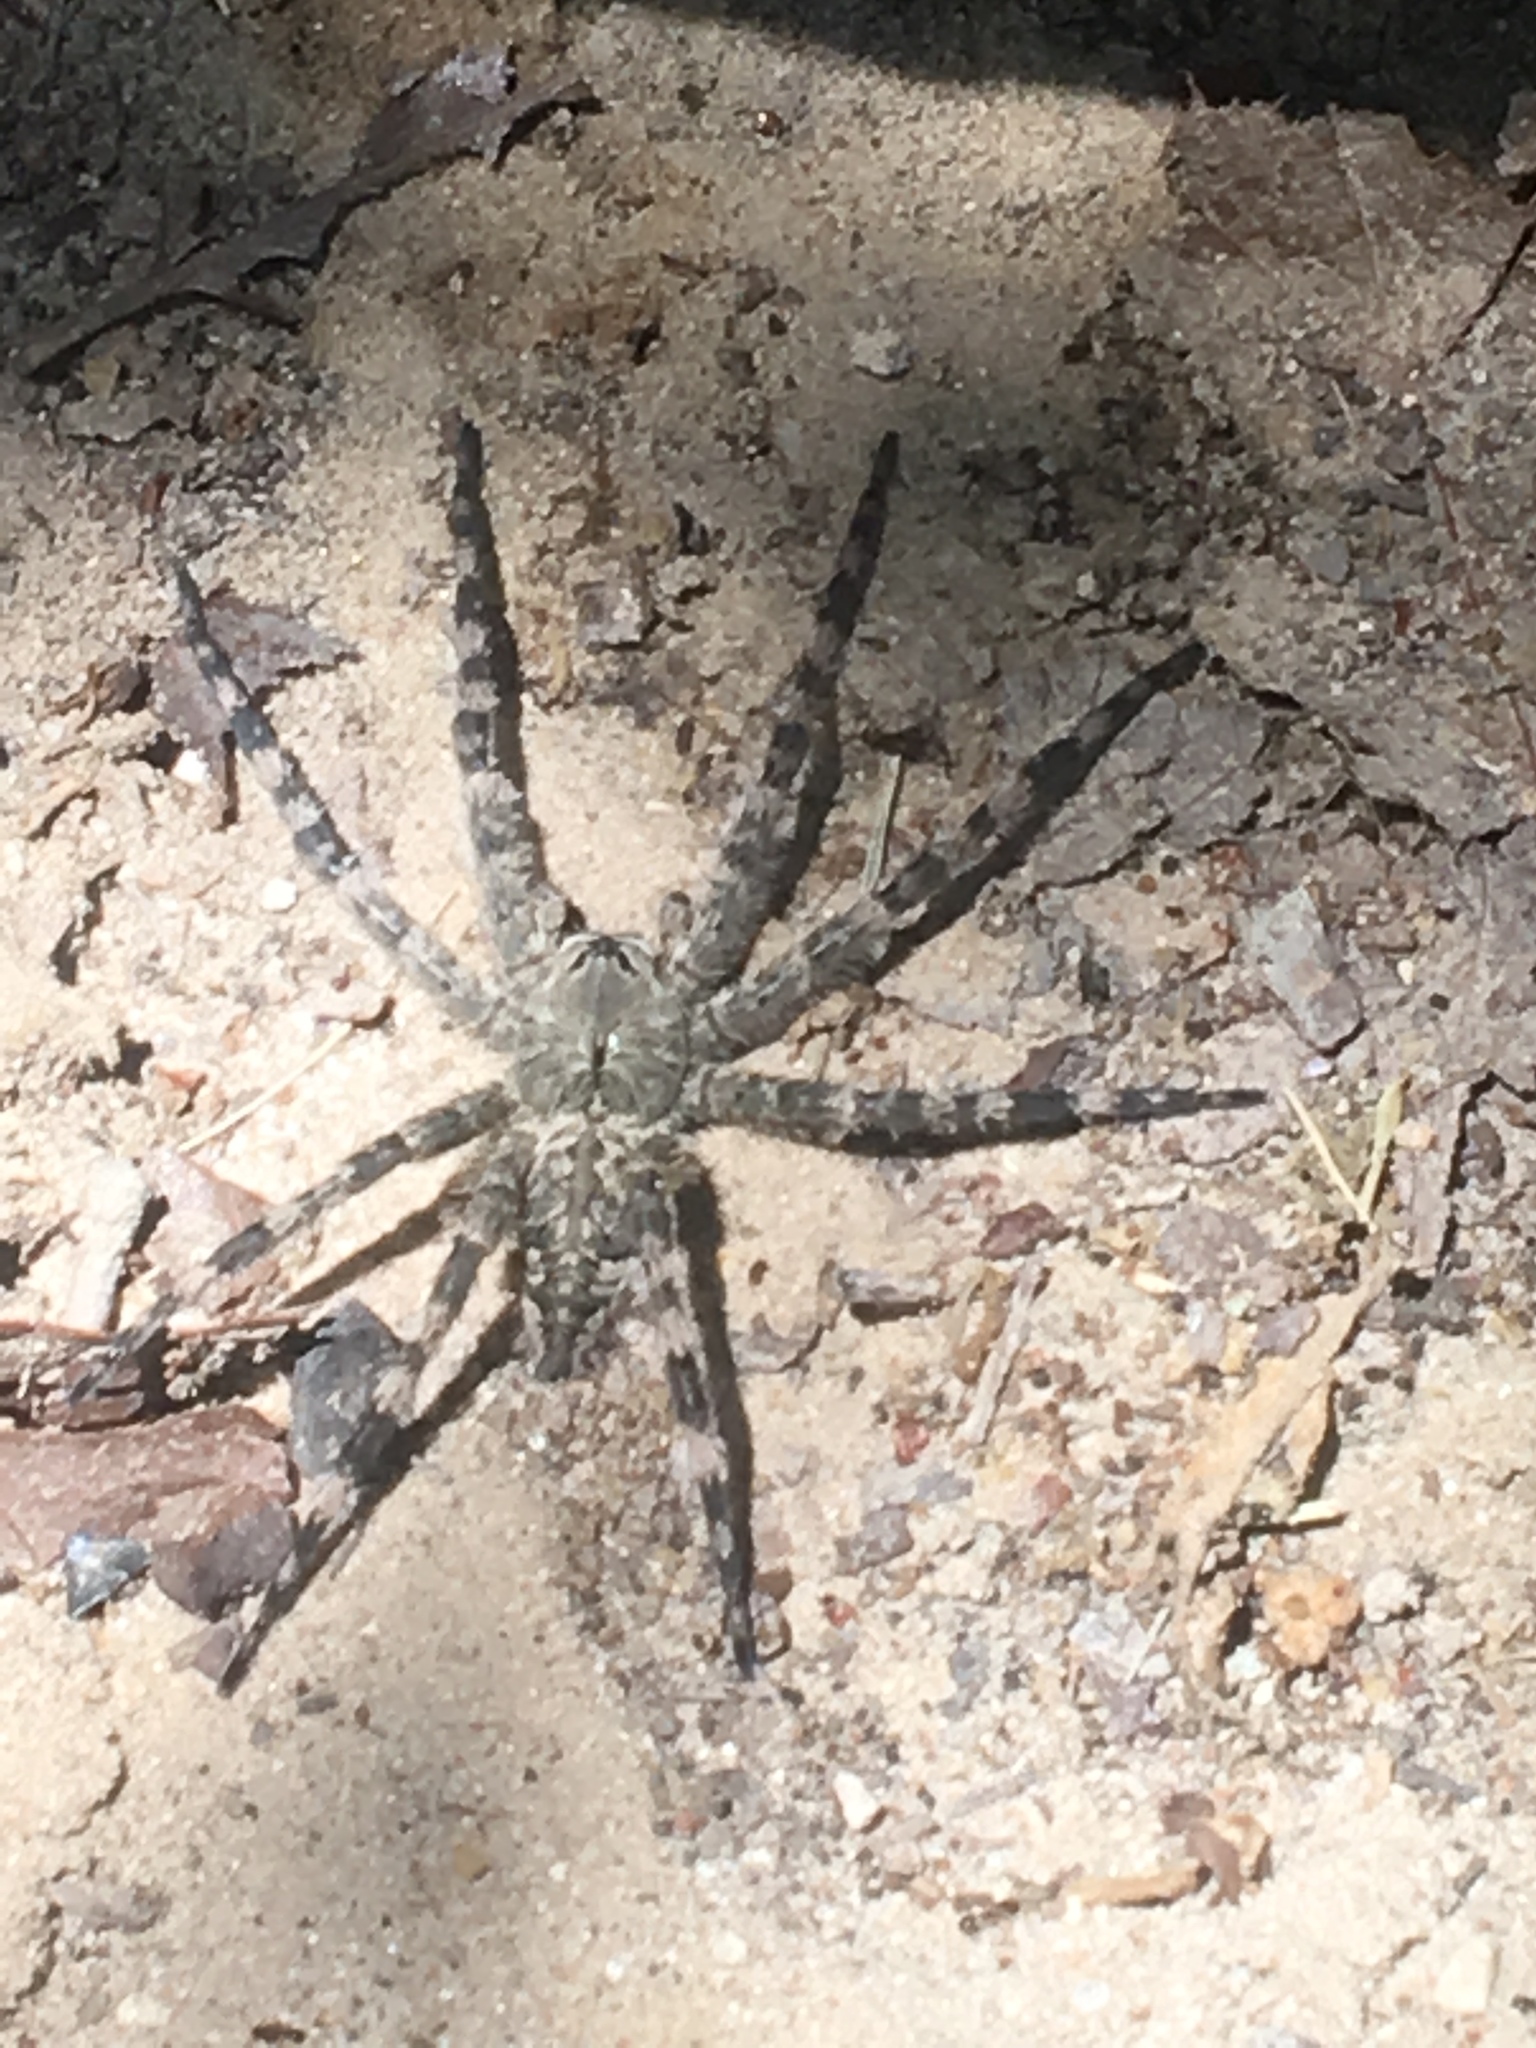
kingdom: Animalia
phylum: Arthropoda
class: Arachnida
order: Araneae
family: Pisauridae
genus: Dolomedes
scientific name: Dolomedes albineus
